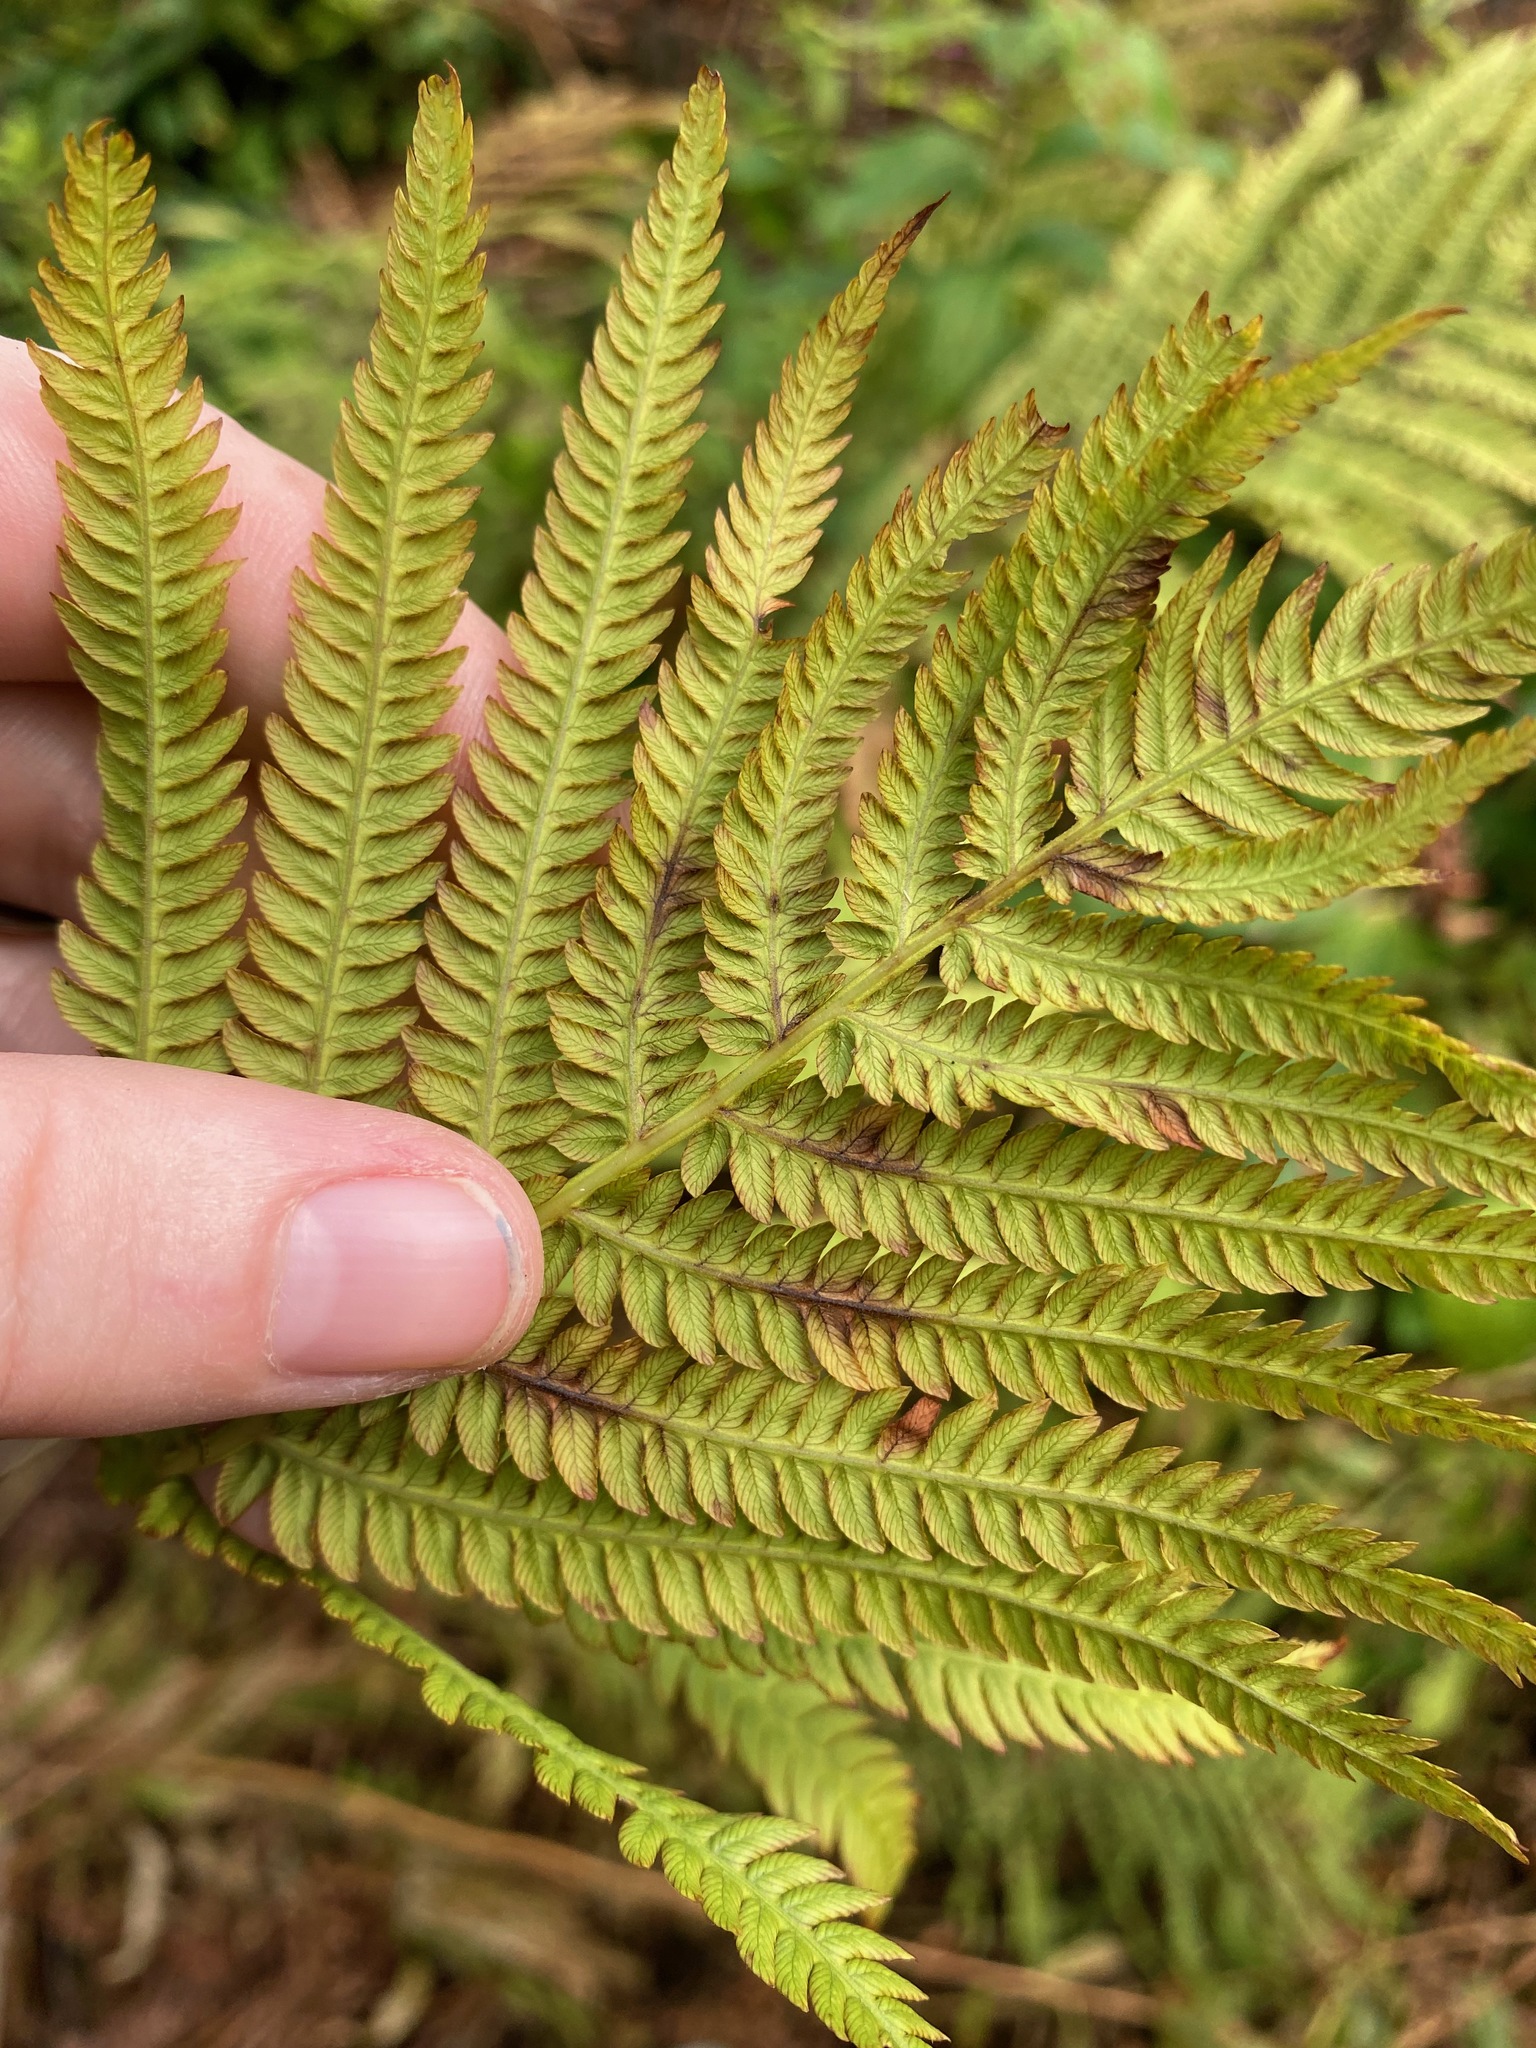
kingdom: Plantae
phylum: Tracheophyta
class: Polypodiopsida
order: Polypodiales
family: Onocleaceae
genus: Matteuccia
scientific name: Matteuccia struthiopteris
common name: Ostrich fern
